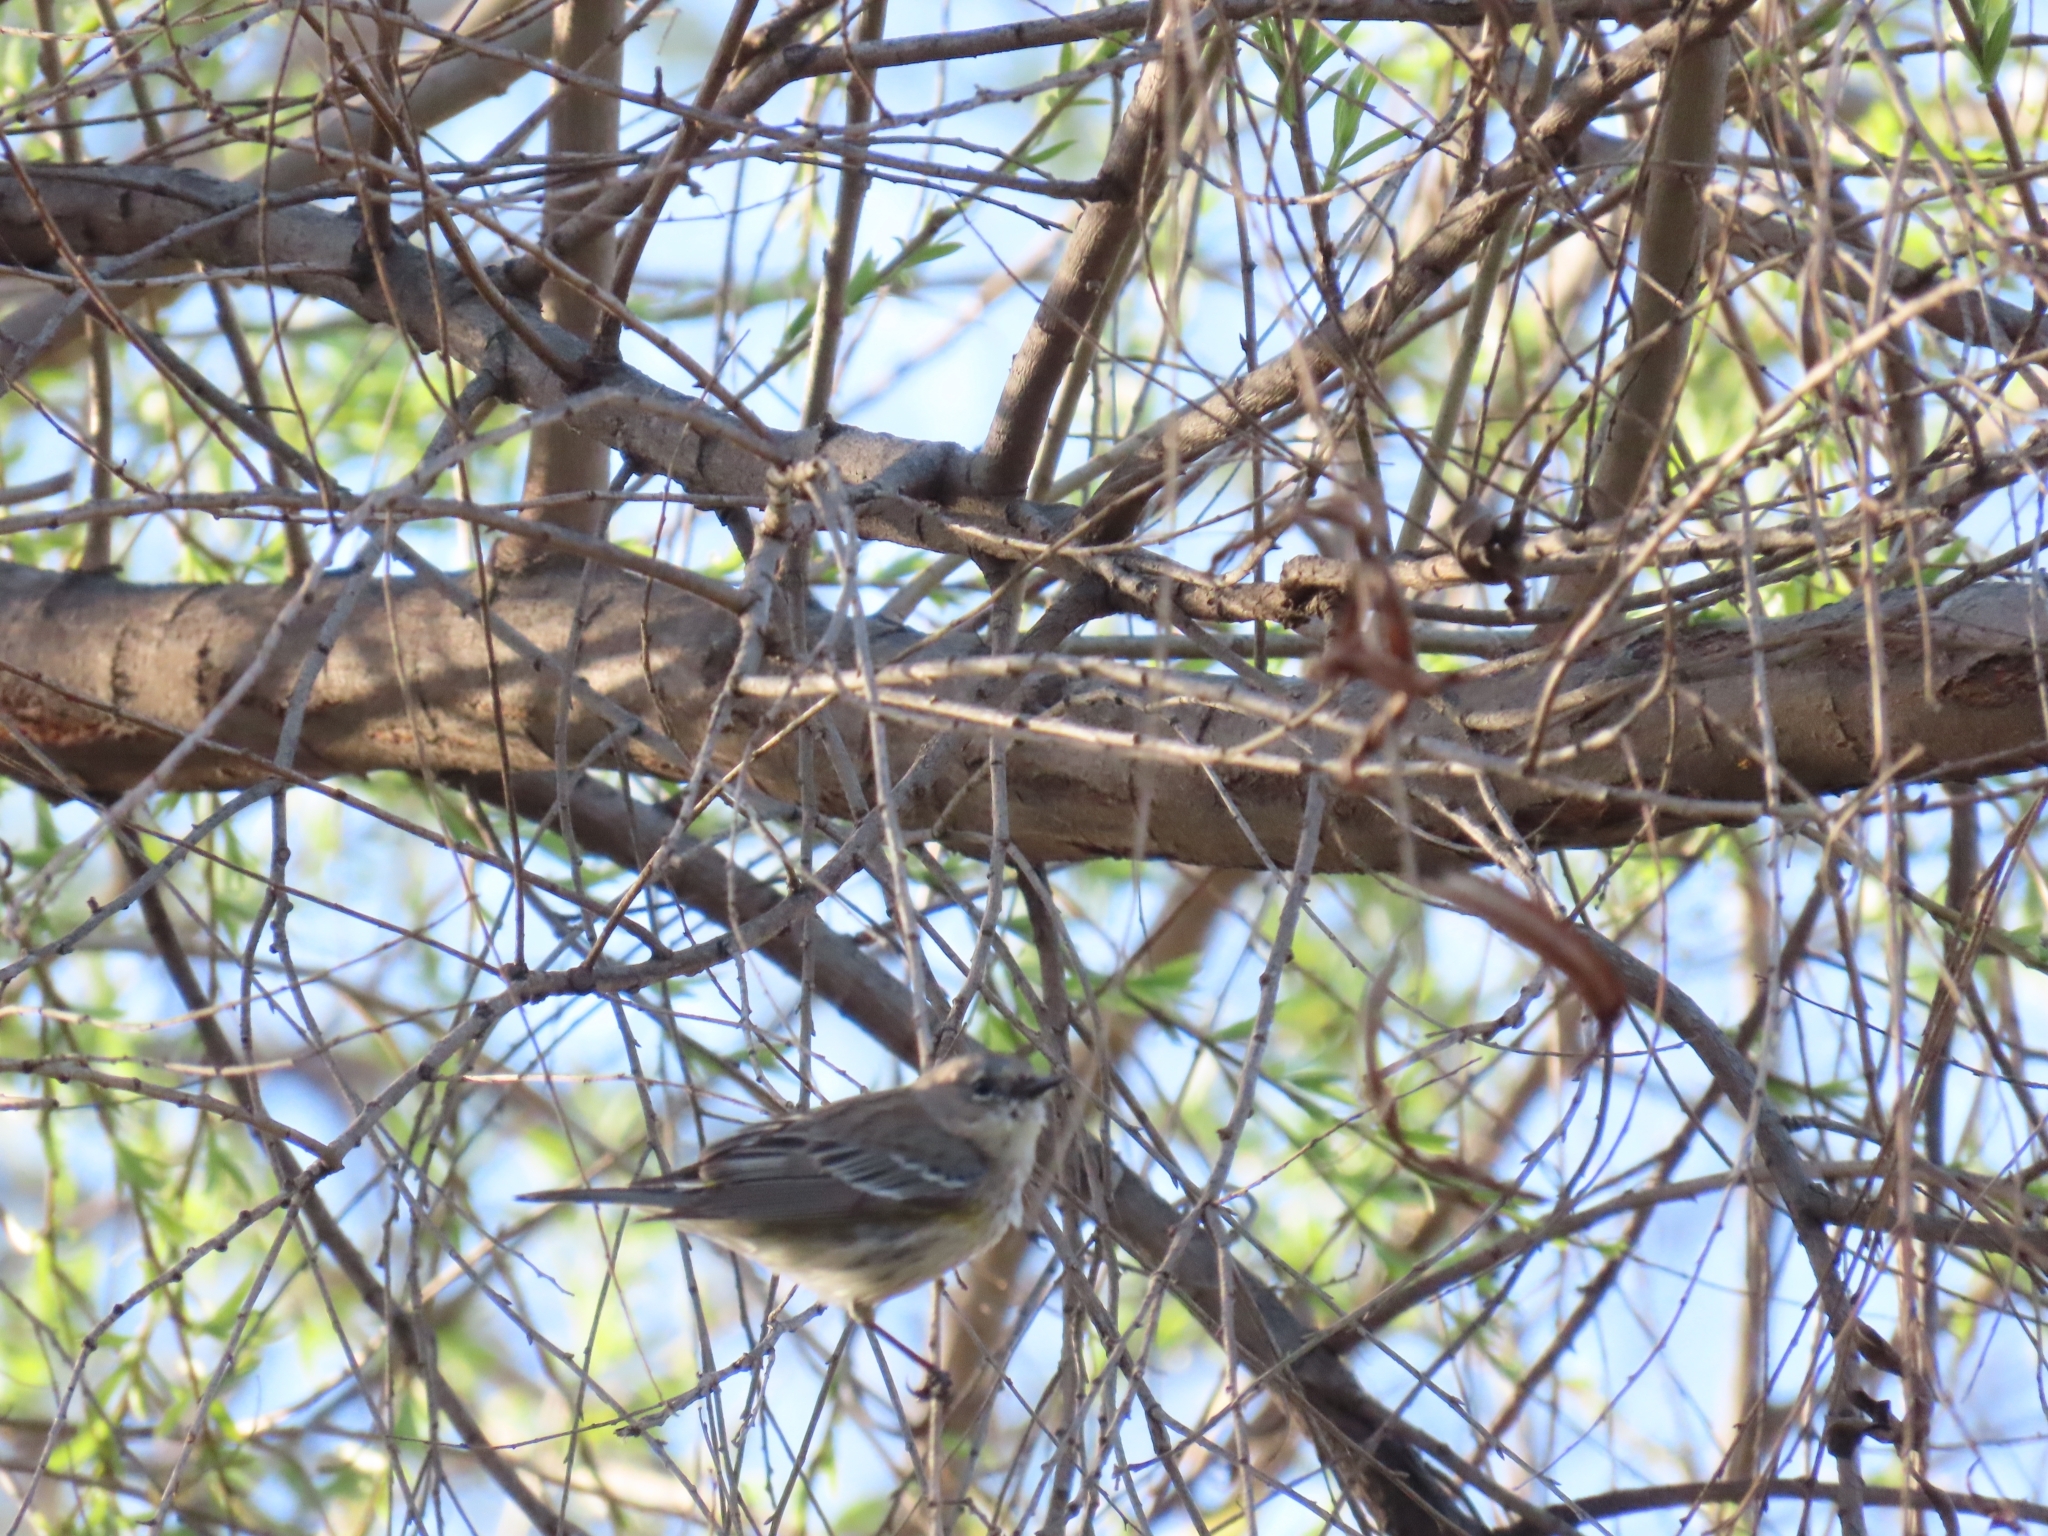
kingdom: Animalia
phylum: Chordata
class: Aves
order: Passeriformes
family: Parulidae
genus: Setophaga
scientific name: Setophaga coronata
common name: Myrtle warbler
